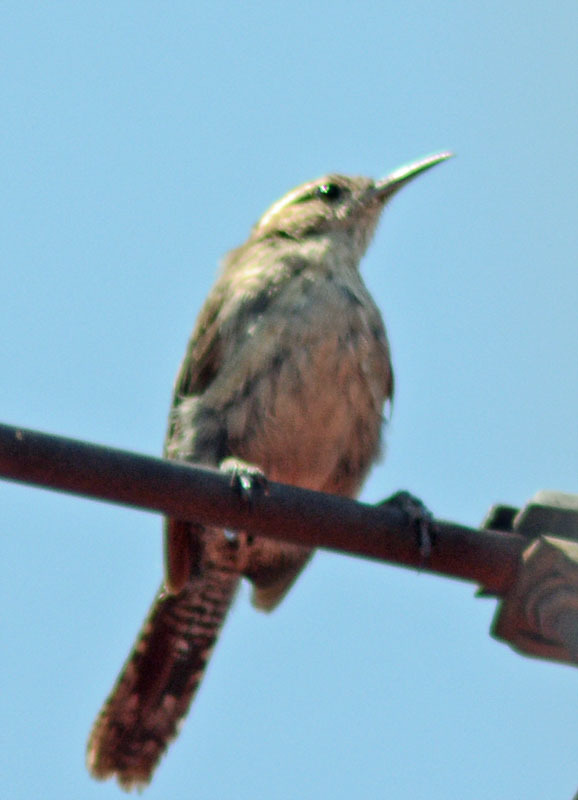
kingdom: Animalia
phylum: Chordata
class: Aves
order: Passeriformes
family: Troglodytidae
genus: Thryomanes
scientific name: Thryomanes bewickii
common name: Bewick's wren
